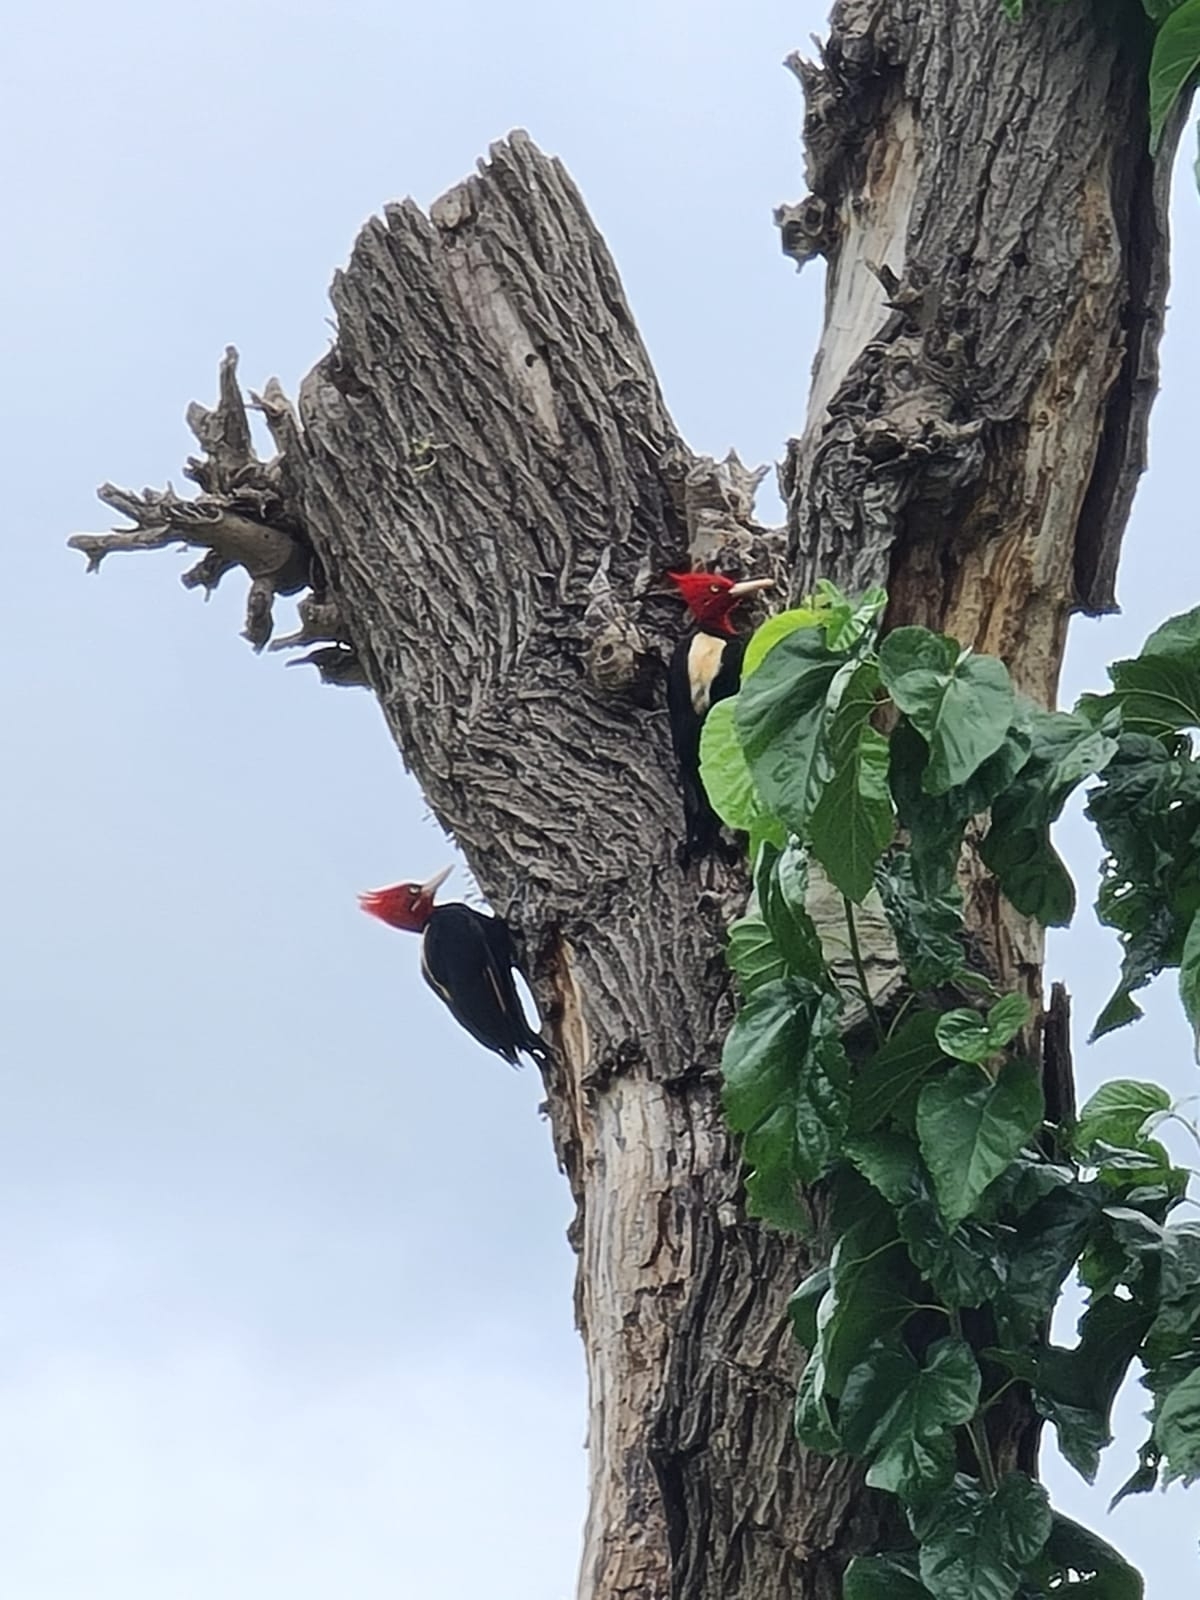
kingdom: Animalia
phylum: Chordata
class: Aves
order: Piciformes
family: Picidae
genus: Campephilus
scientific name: Campephilus leucopogon
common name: Cream-backed woodpecker
